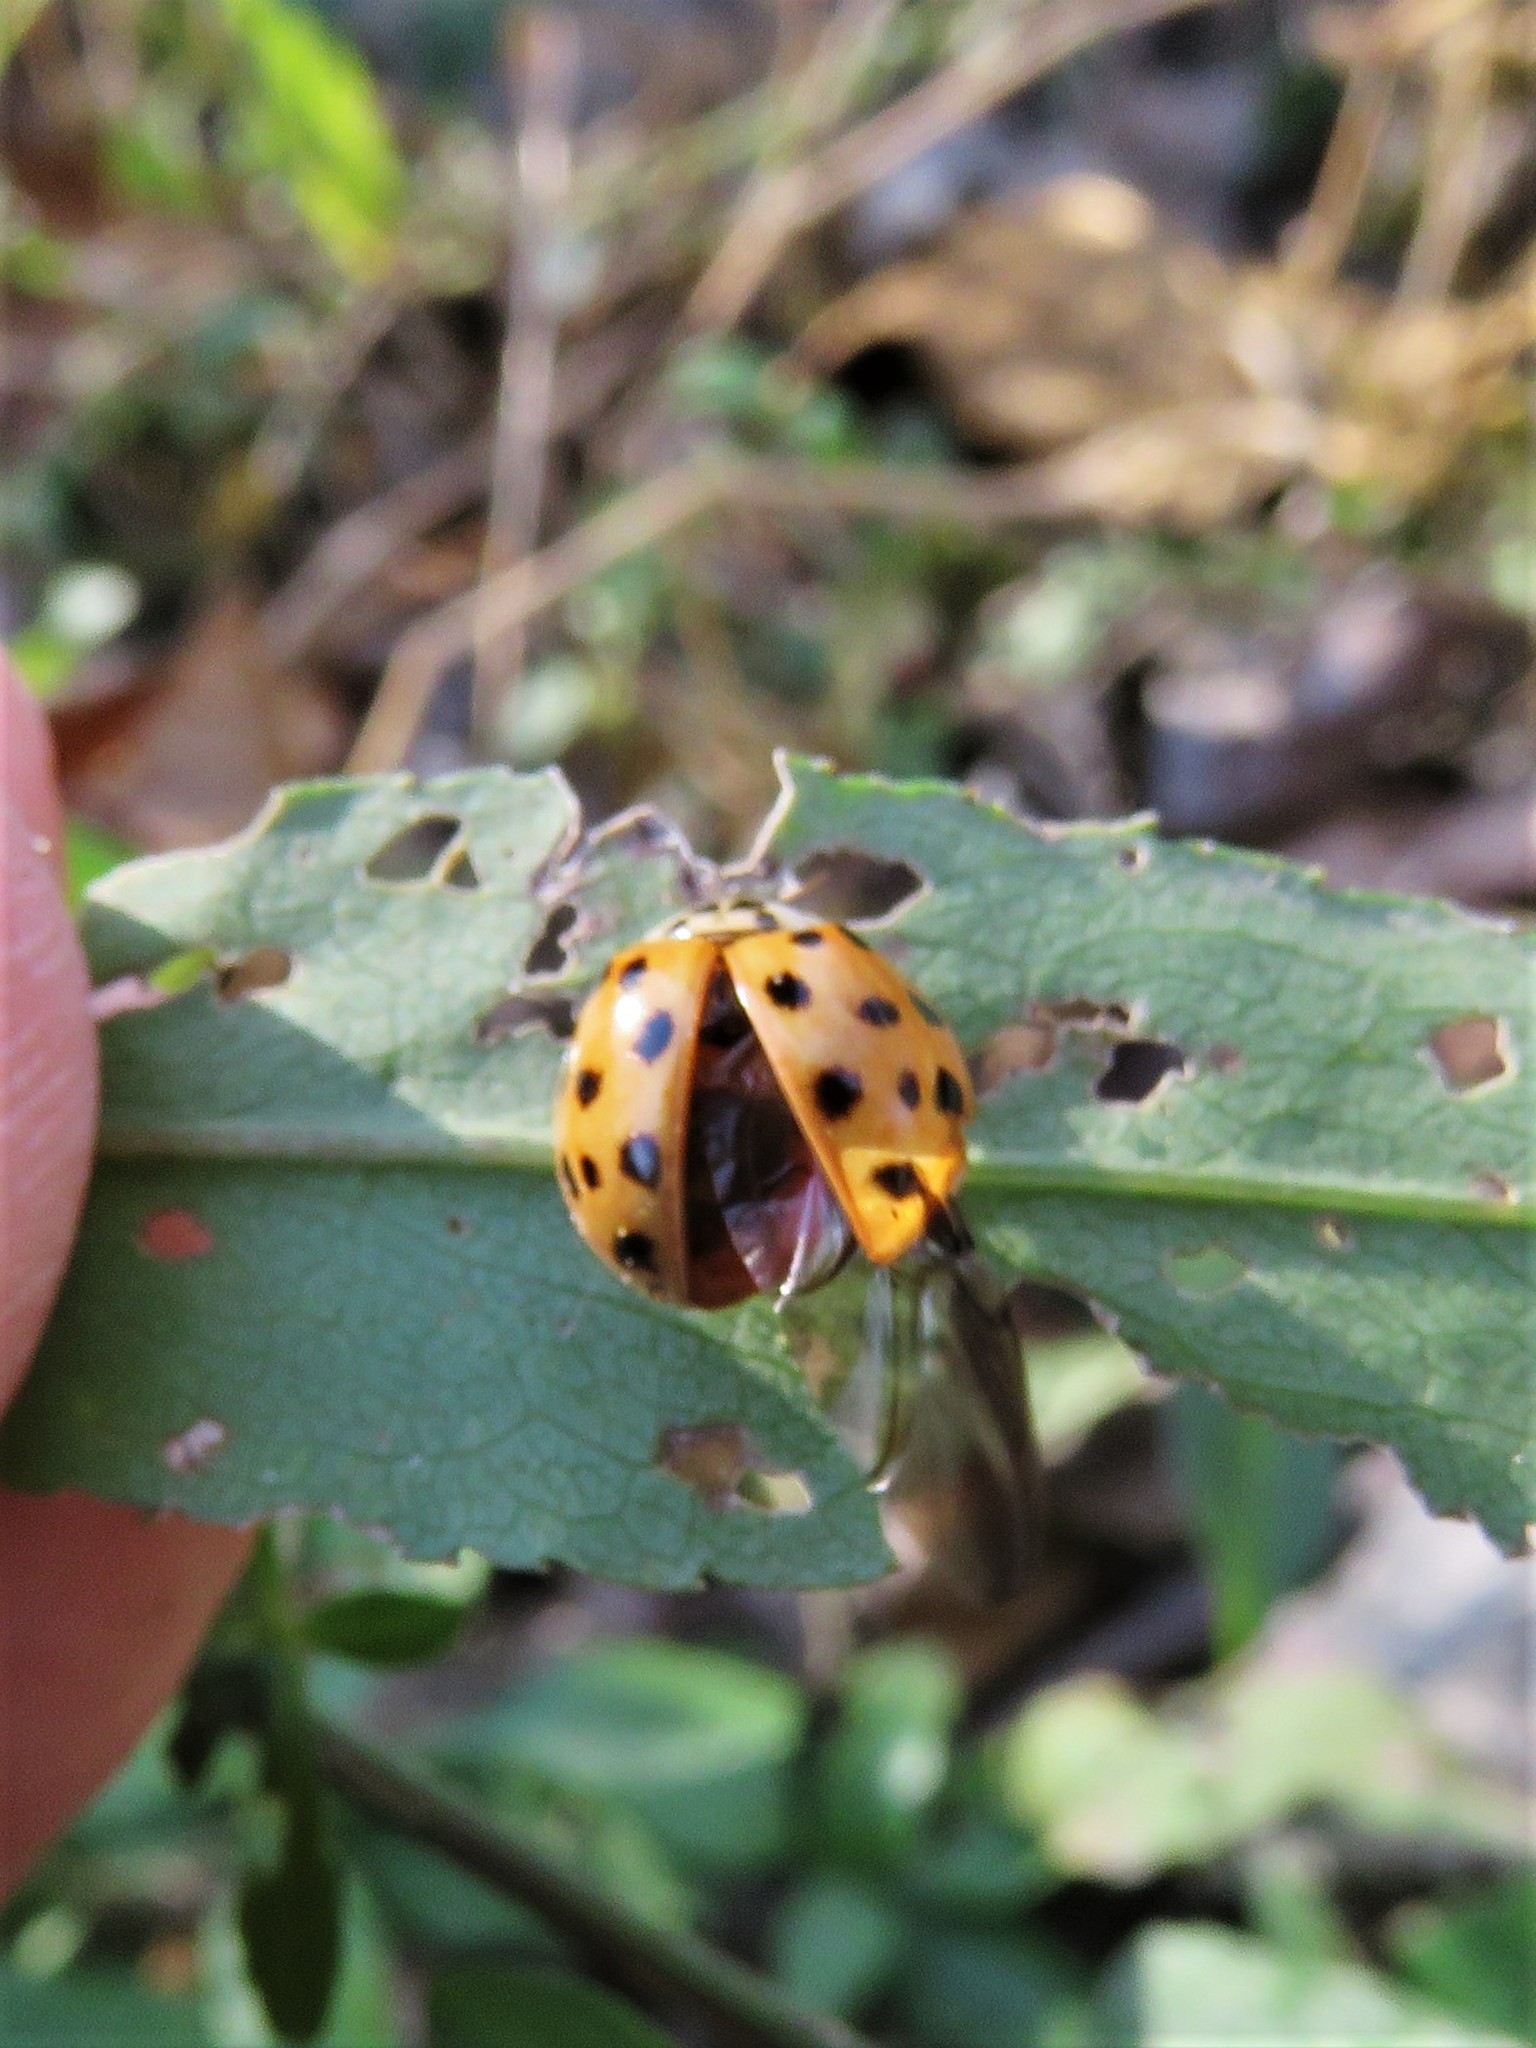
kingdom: Animalia
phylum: Arthropoda
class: Insecta
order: Coleoptera
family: Coccinellidae
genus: Harmonia
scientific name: Harmonia axyridis
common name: Harlequin ladybird
